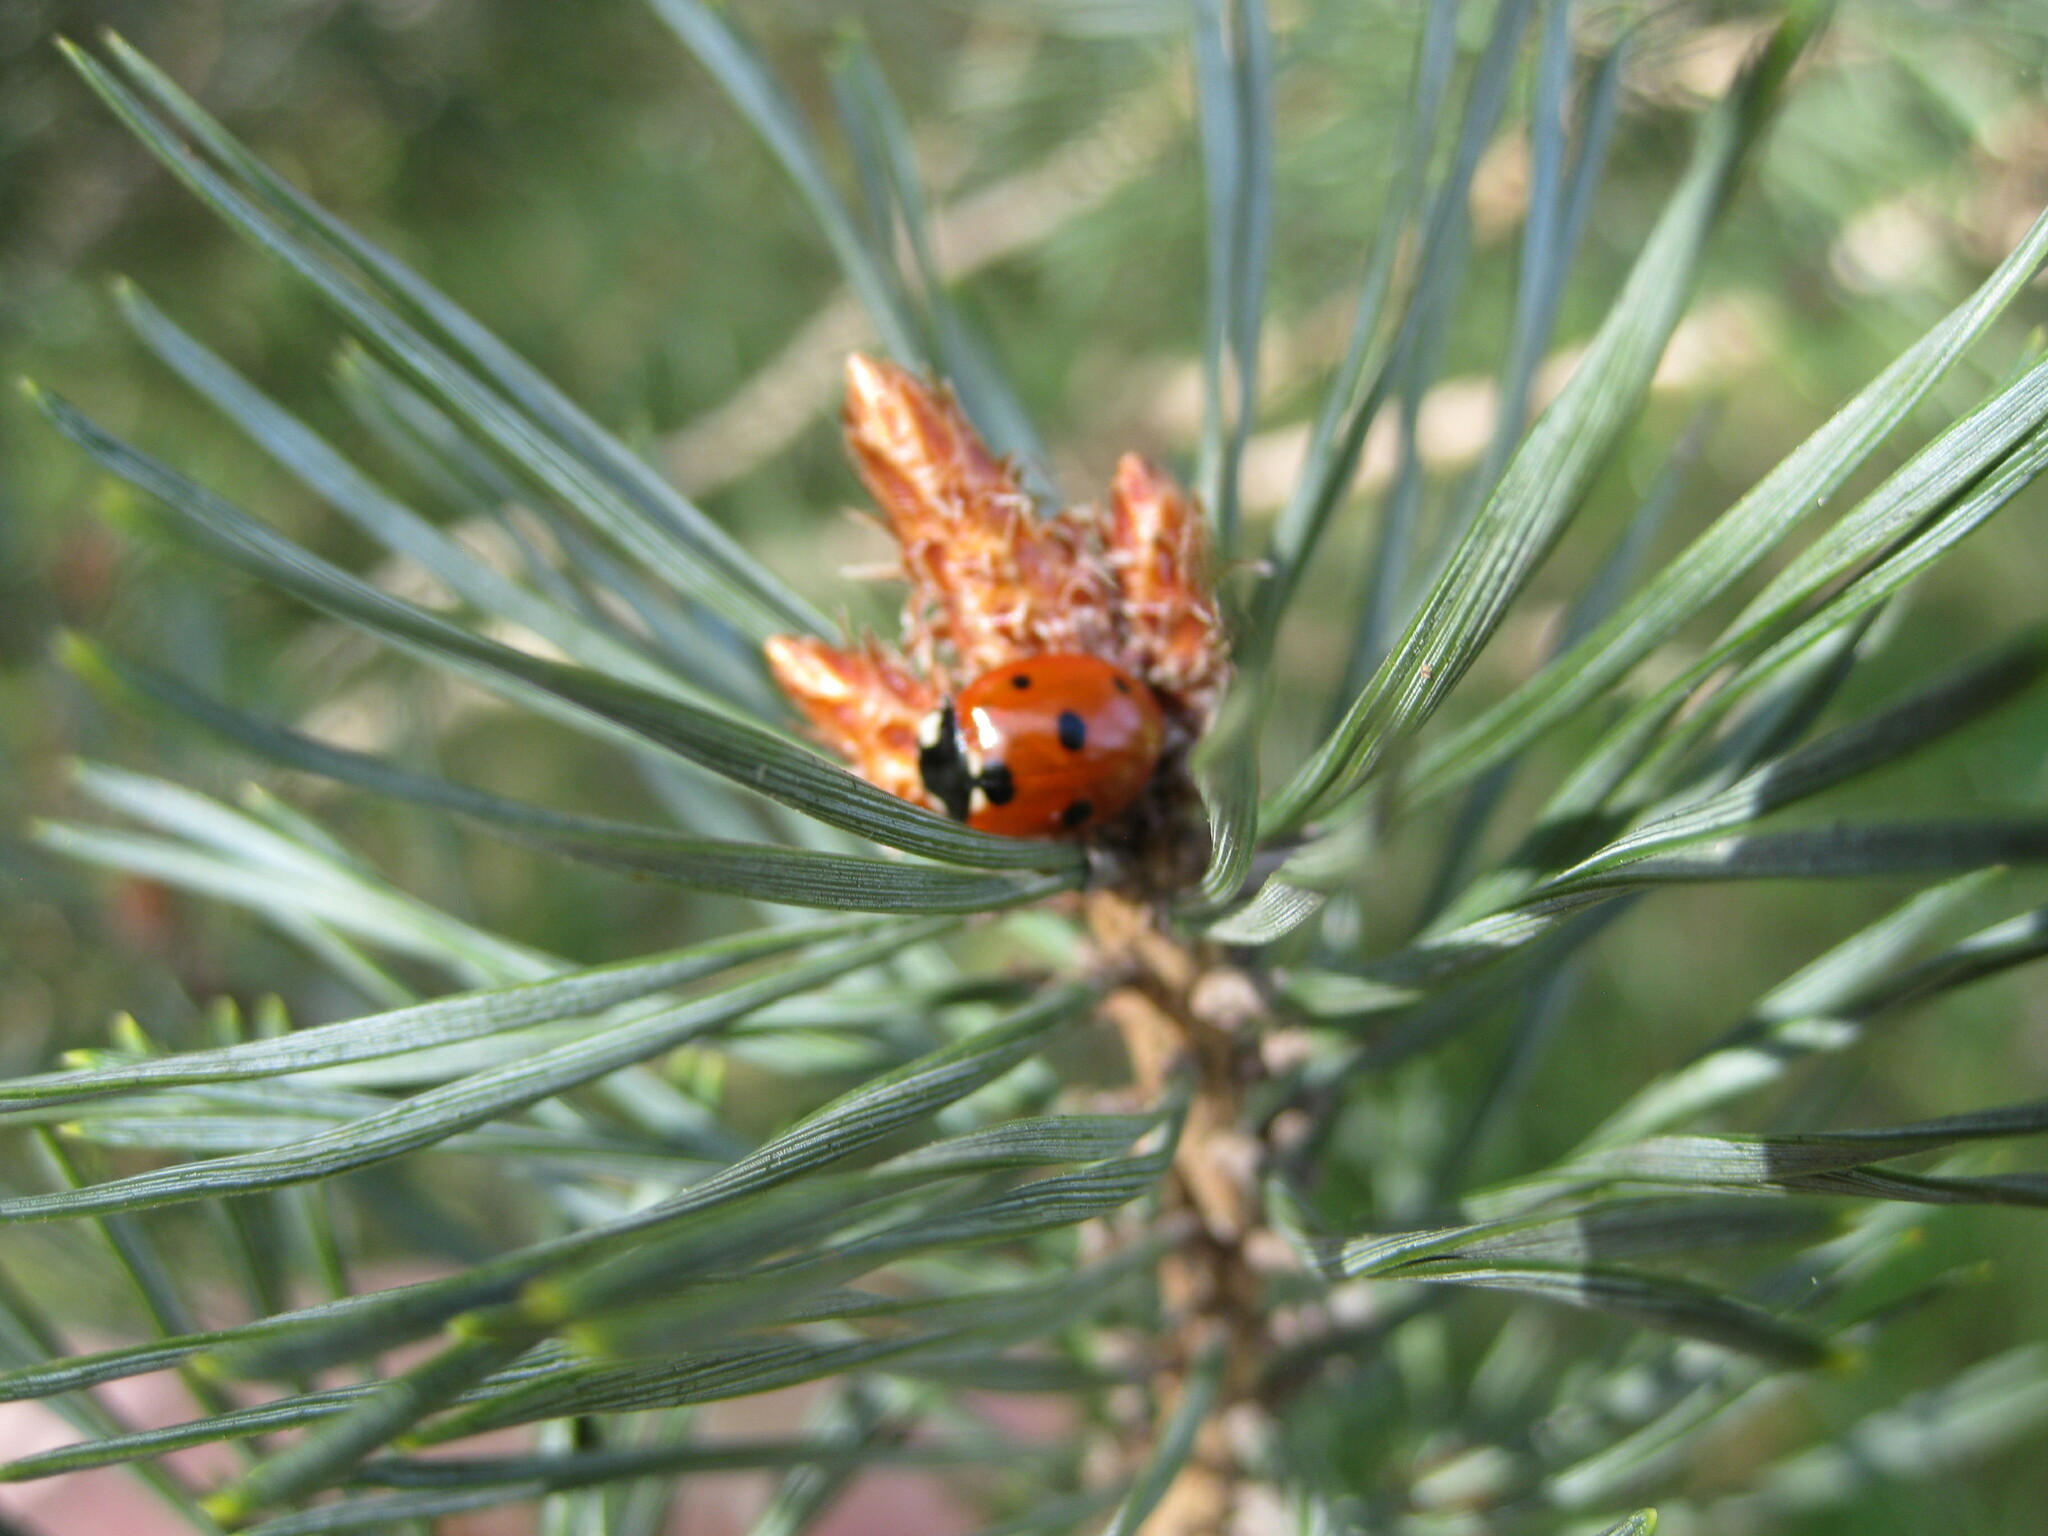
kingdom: Animalia
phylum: Arthropoda
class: Insecta
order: Coleoptera
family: Coccinellidae
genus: Coccinella
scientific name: Coccinella septempunctata
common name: Sevenspotted lady beetle
